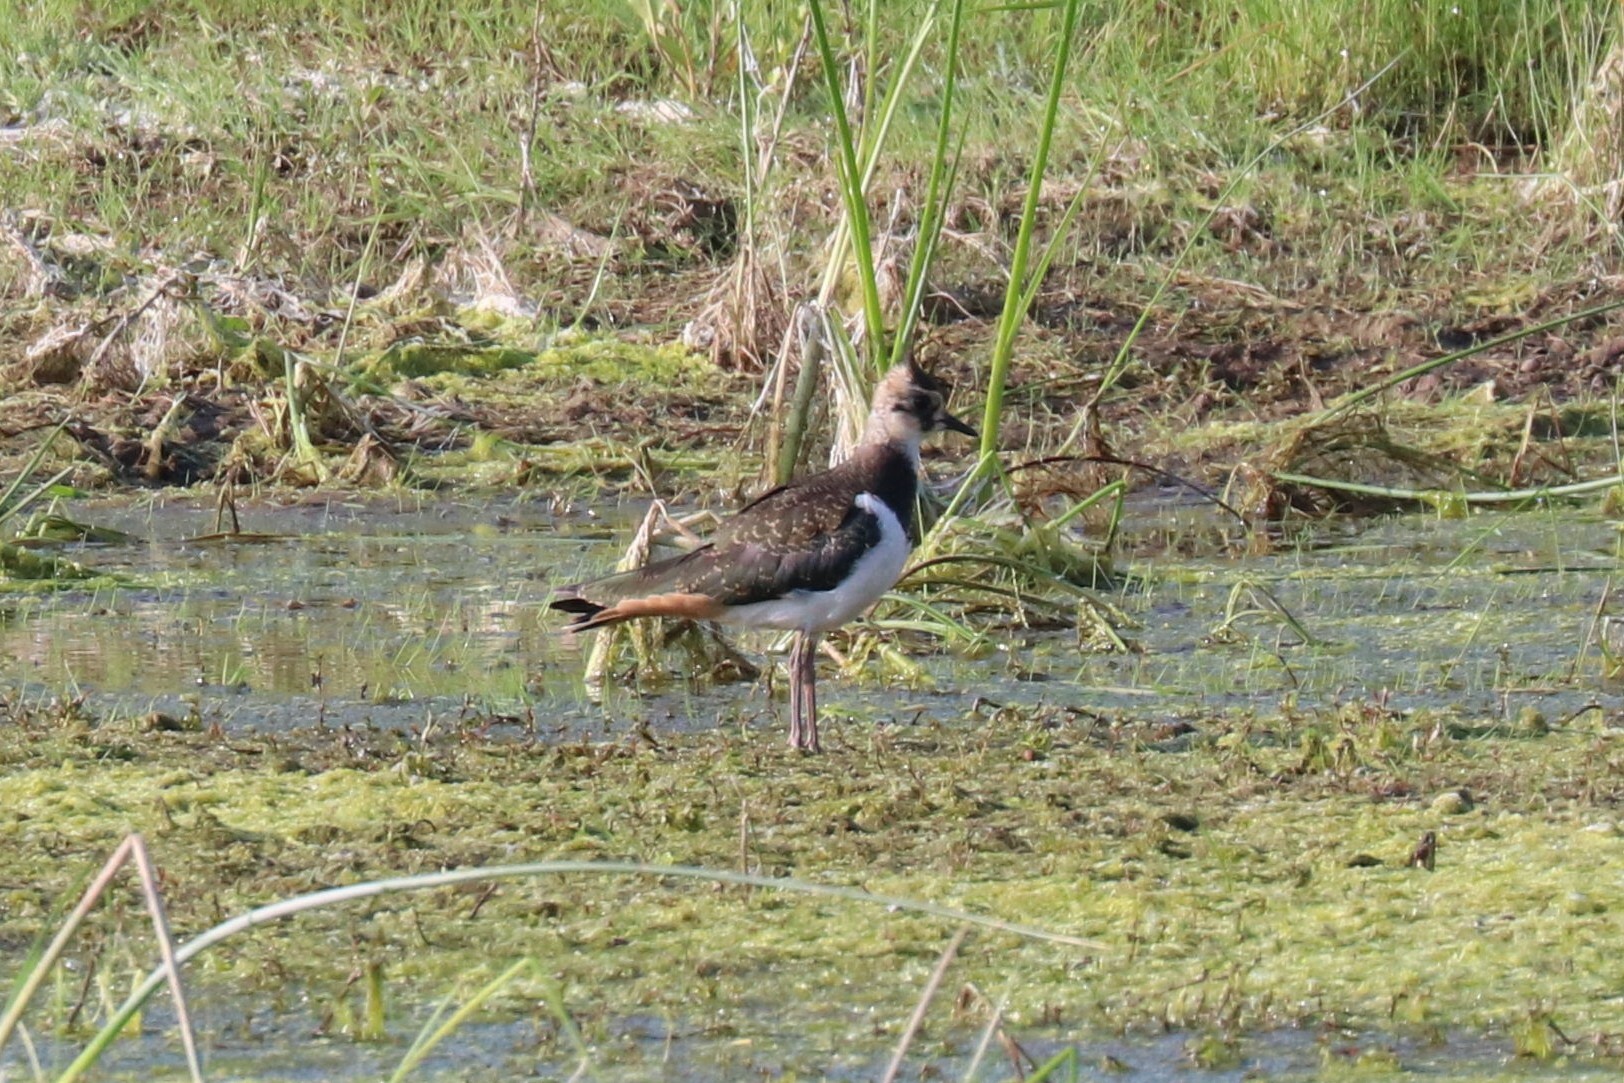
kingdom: Animalia
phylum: Chordata
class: Aves
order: Charadriiformes
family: Charadriidae
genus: Vanellus
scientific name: Vanellus vanellus
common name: Northern lapwing
